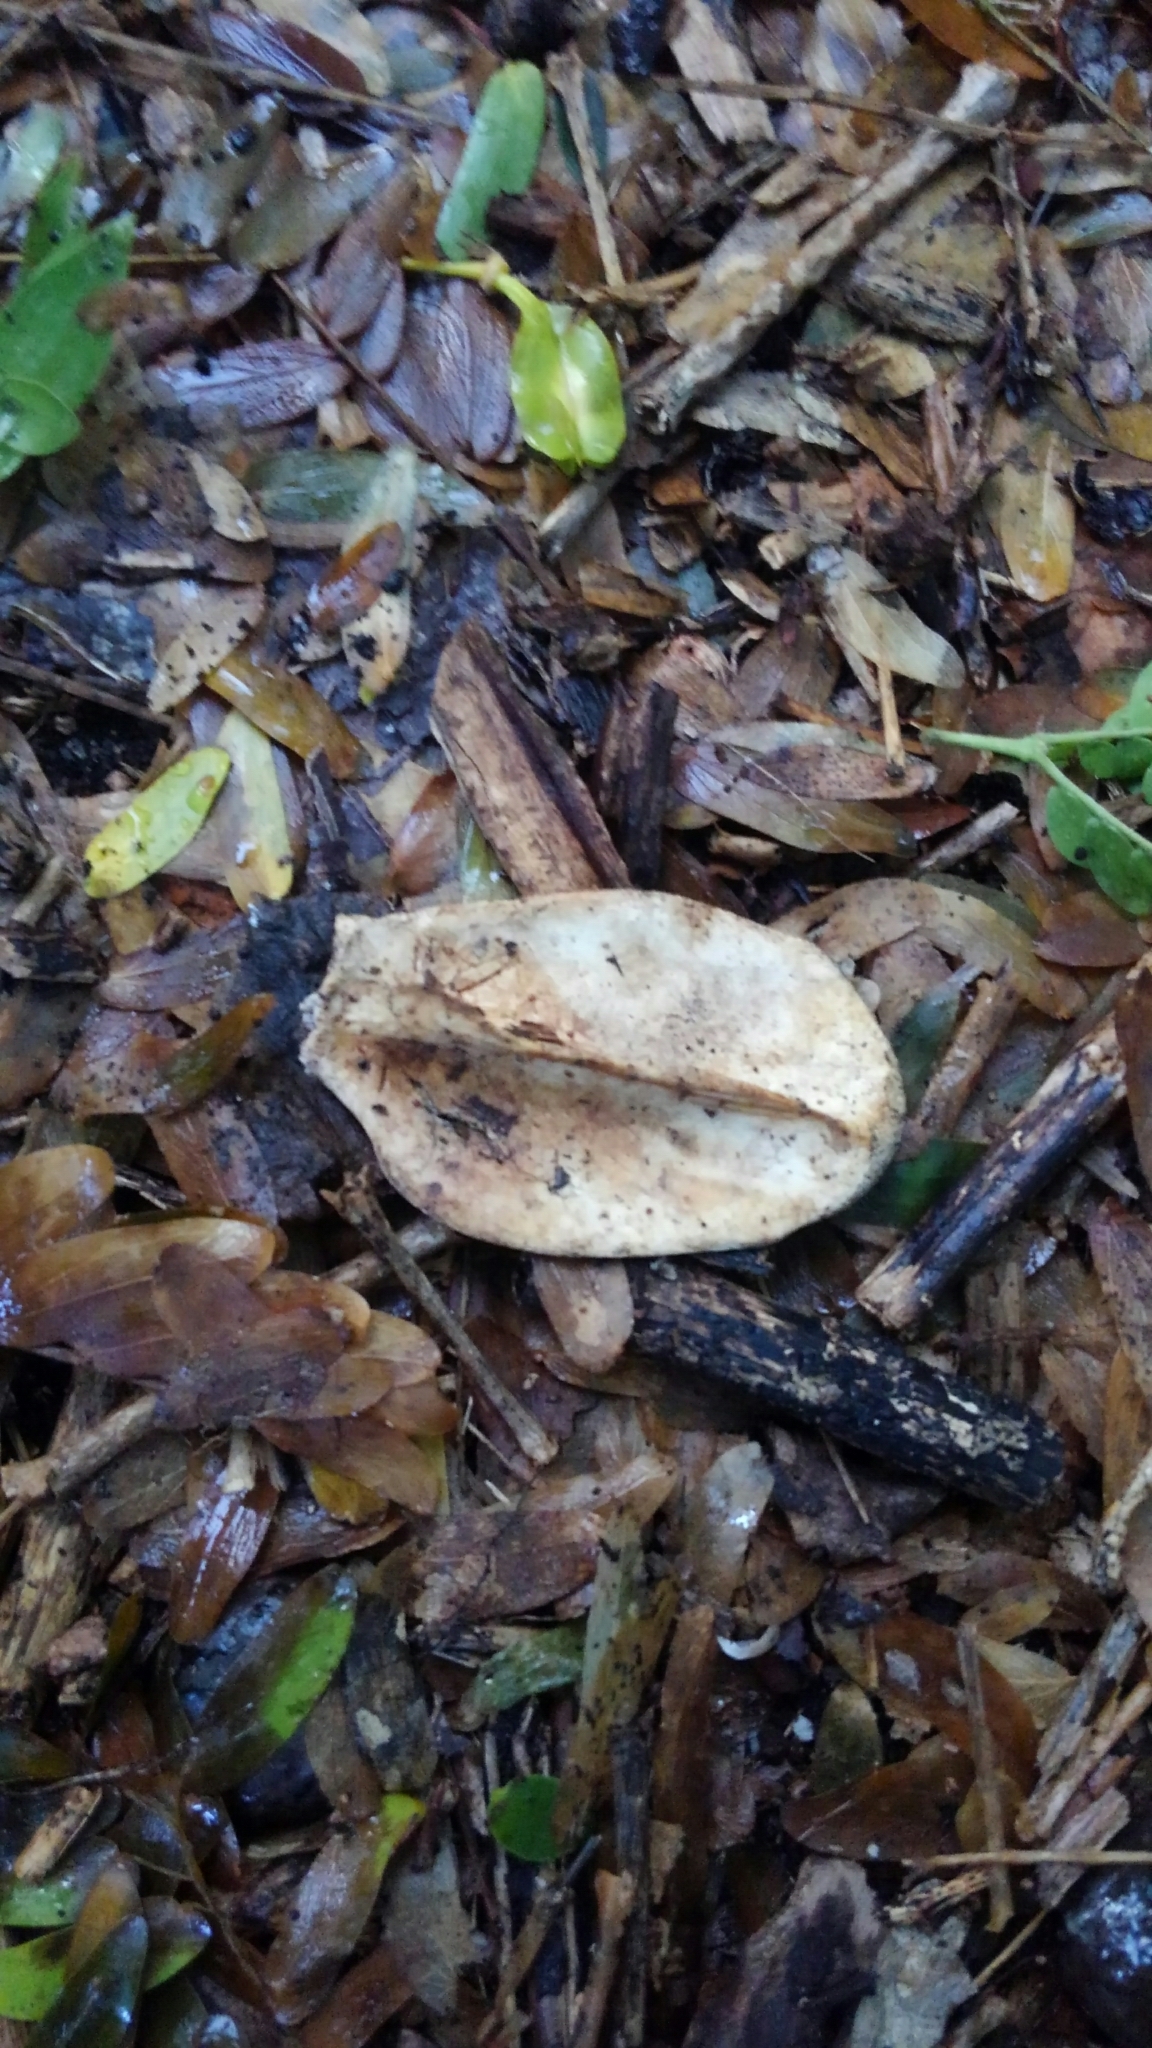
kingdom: Animalia
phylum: Chordata
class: Mammalia
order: Didelphimorphia
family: Didelphidae
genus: Didelphis
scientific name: Didelphis virginiana
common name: Virginia opossum
